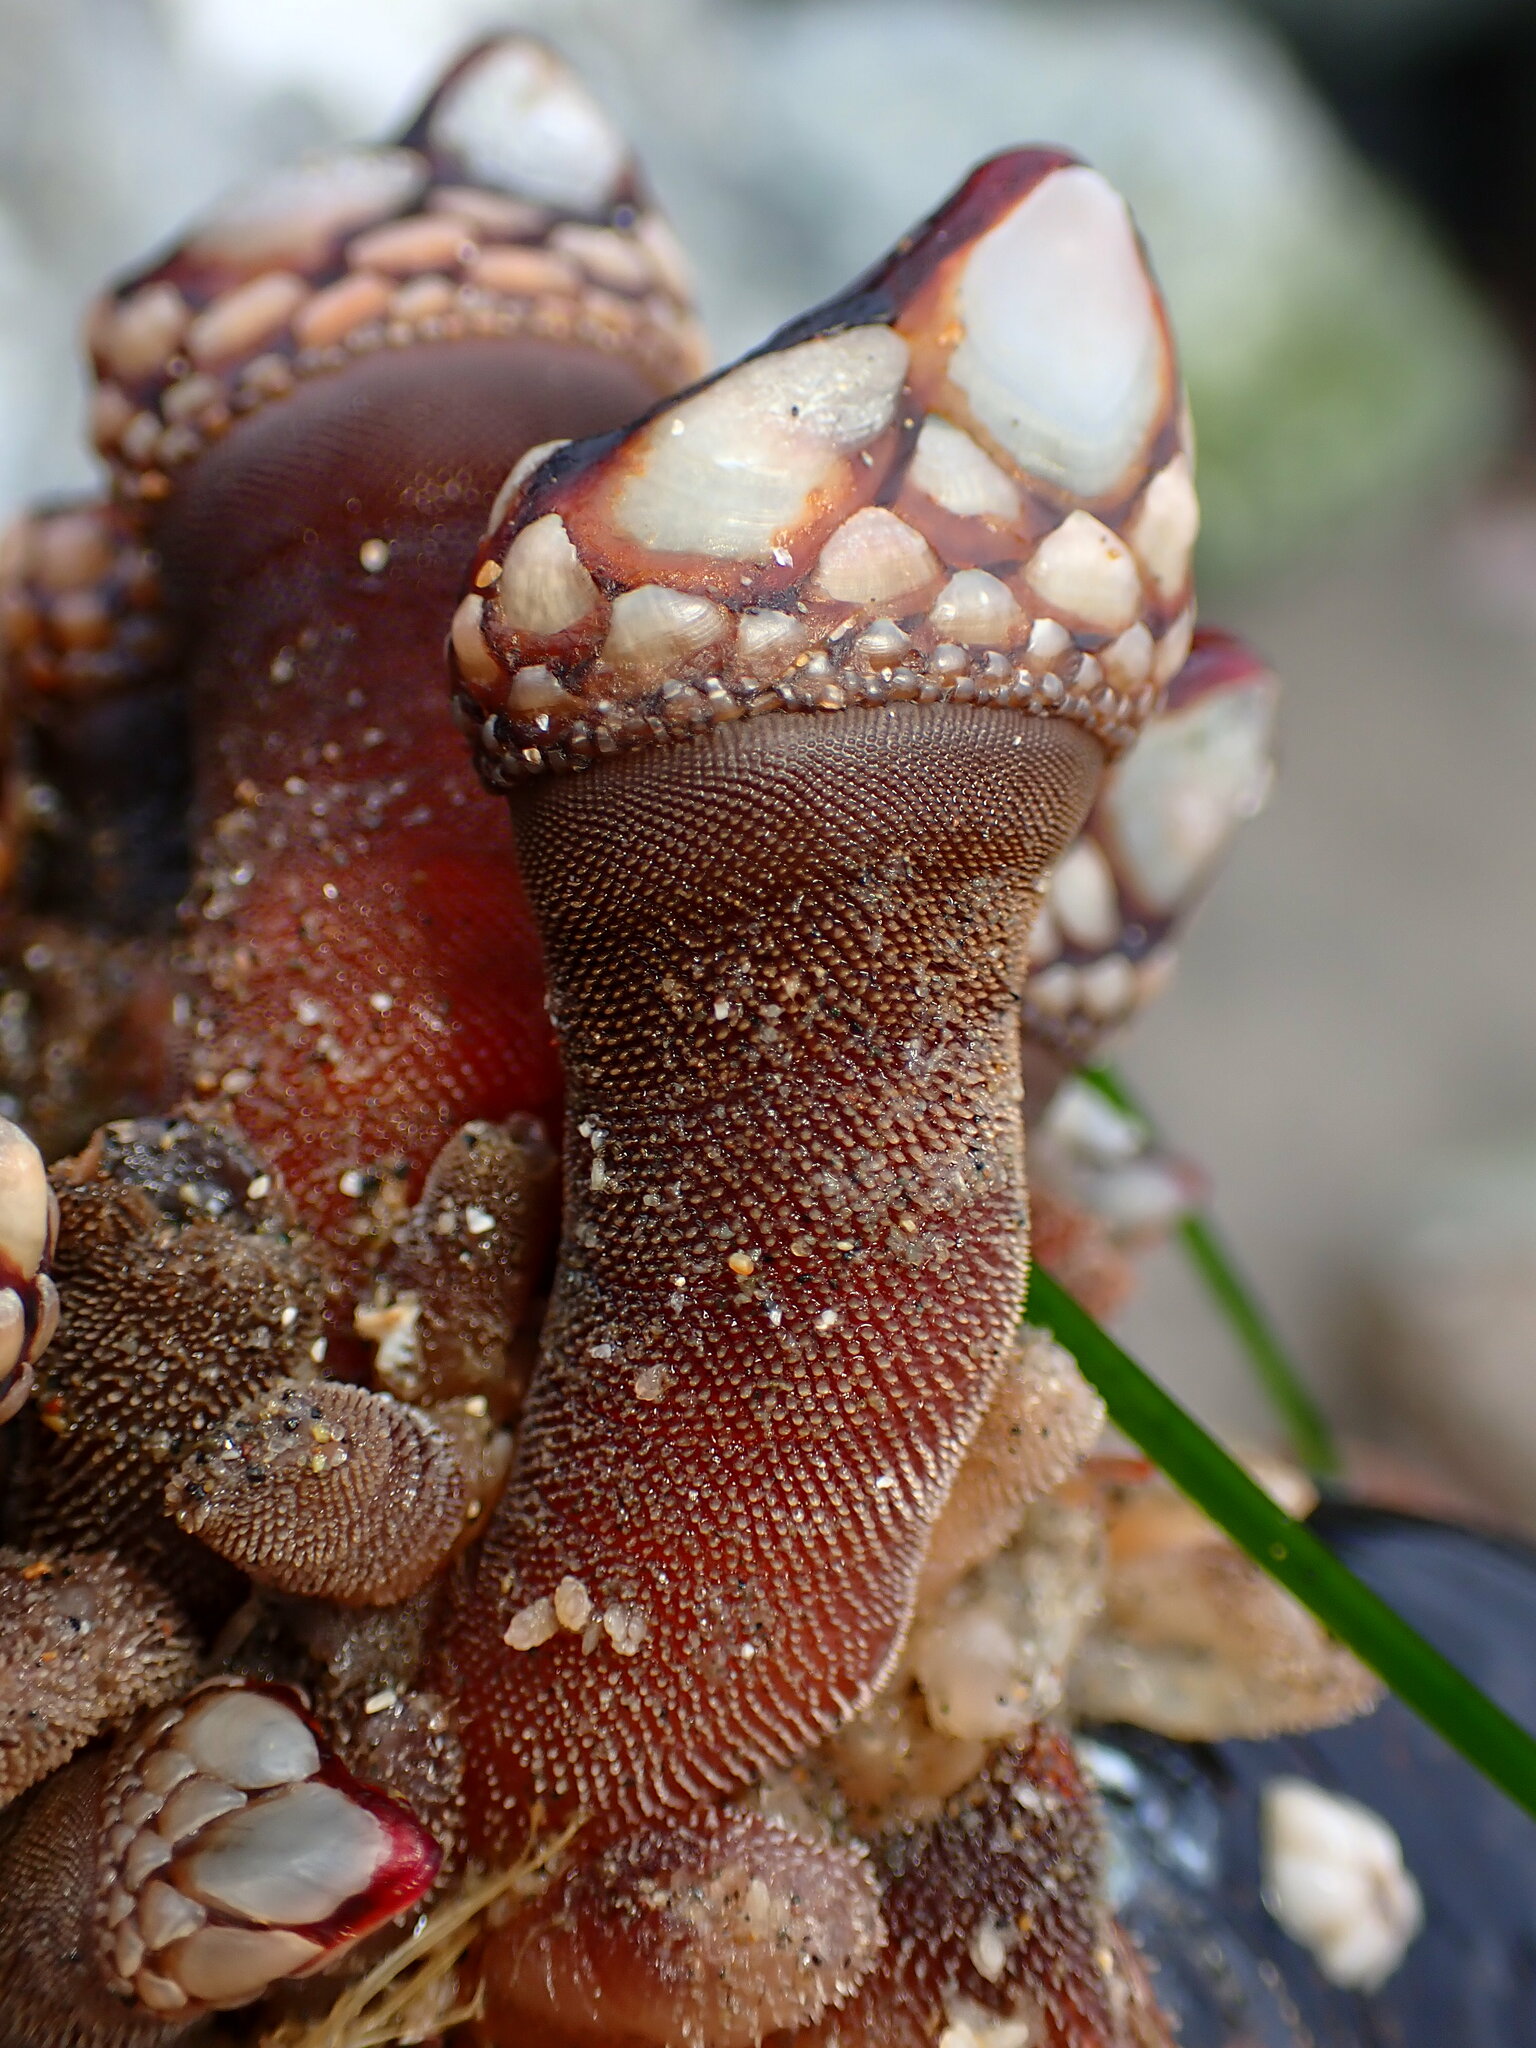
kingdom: Animalia
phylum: Arthropoda
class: Maxillopoda
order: Pedunculata
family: Pollicipedidae
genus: Pollicipes
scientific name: Pollicipes polymerus
